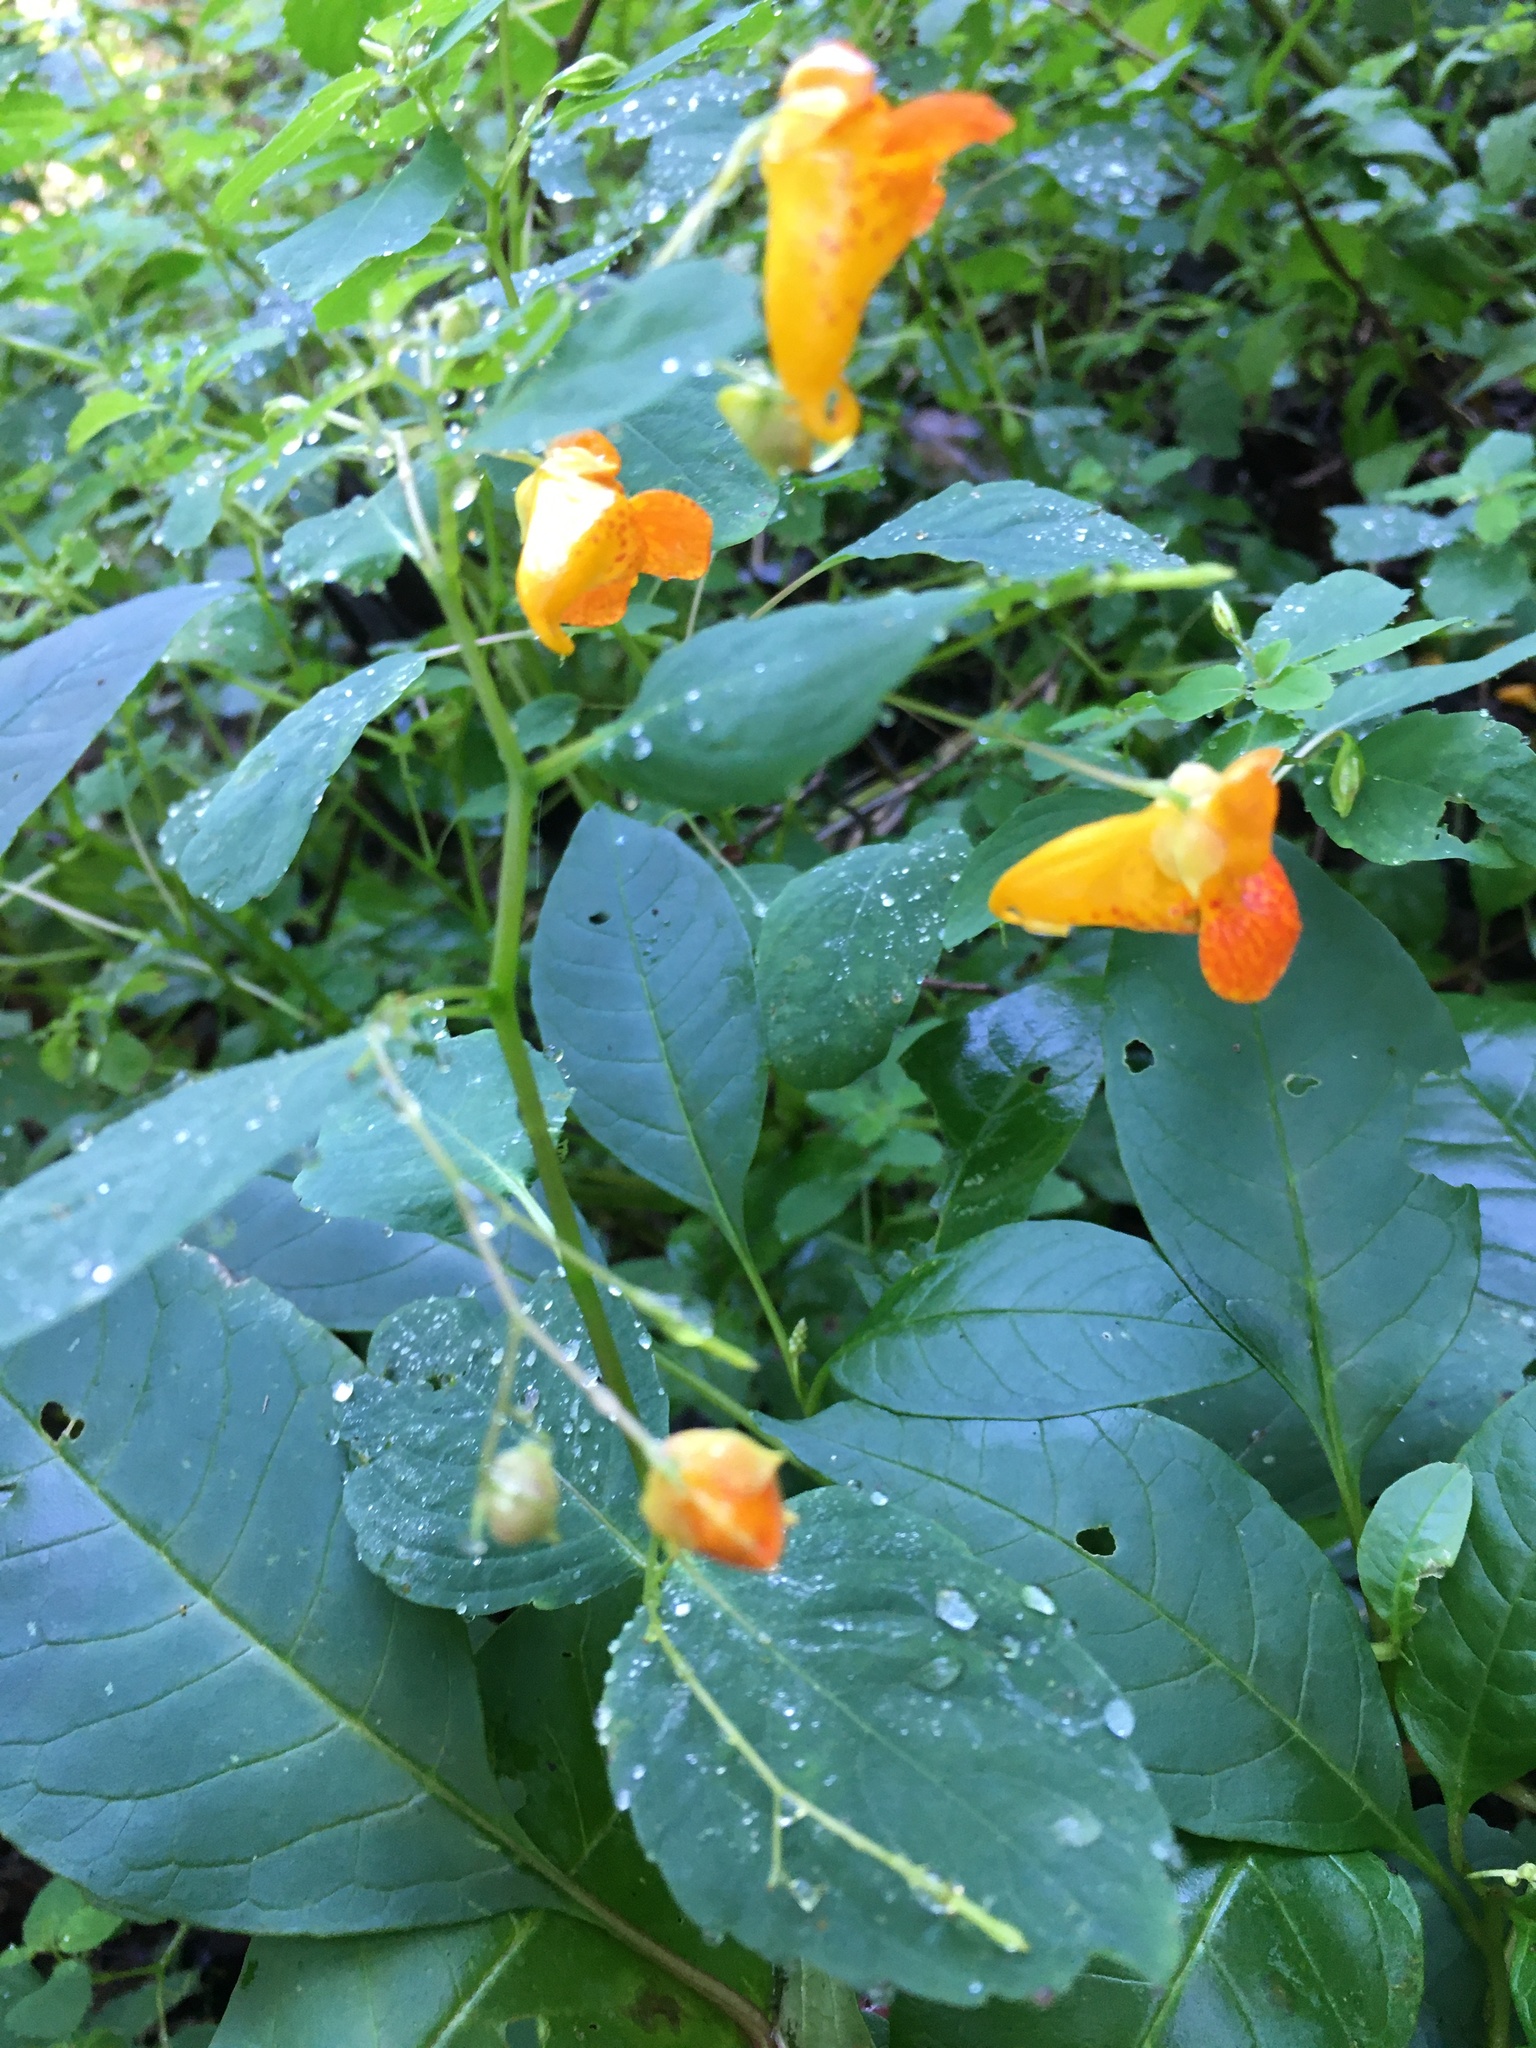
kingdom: Plantae
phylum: Tracheophyta
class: Magnoliopsida
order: Ericales
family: Balsaminaceae
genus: Impatiens
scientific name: Impatiens capensis
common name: Orange balsam
